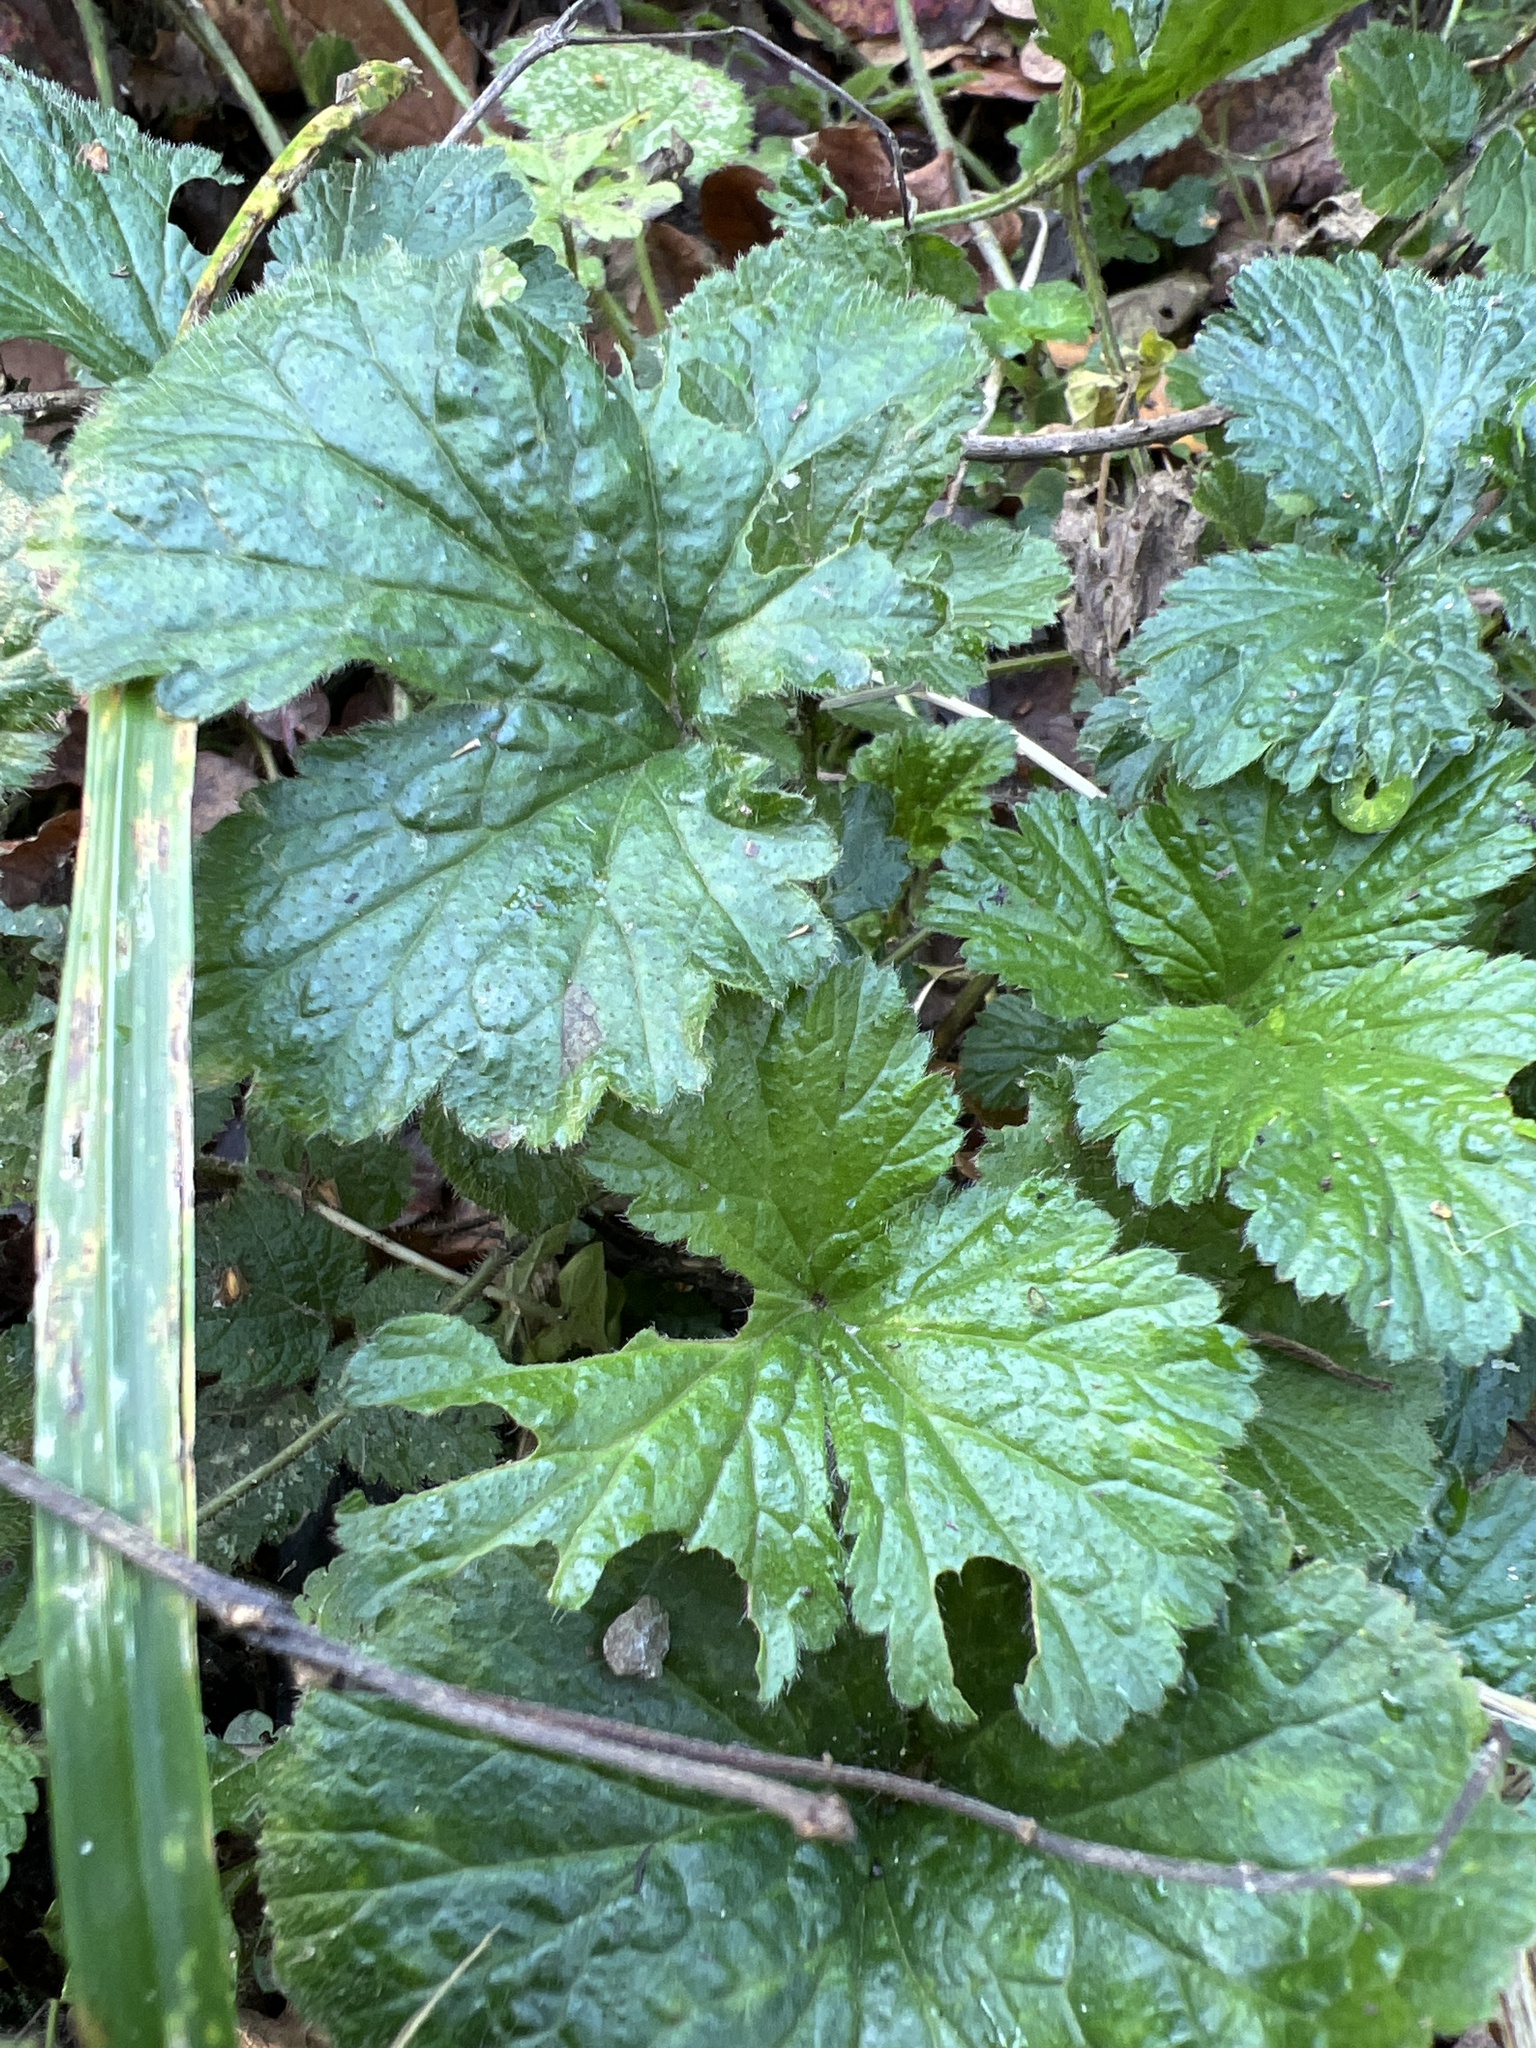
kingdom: Plantae
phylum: Tracheophyta
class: Magnoliopsida
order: Rosales
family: Rosaceae
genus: Geum
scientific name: Geum urbanum
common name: Wood avens
